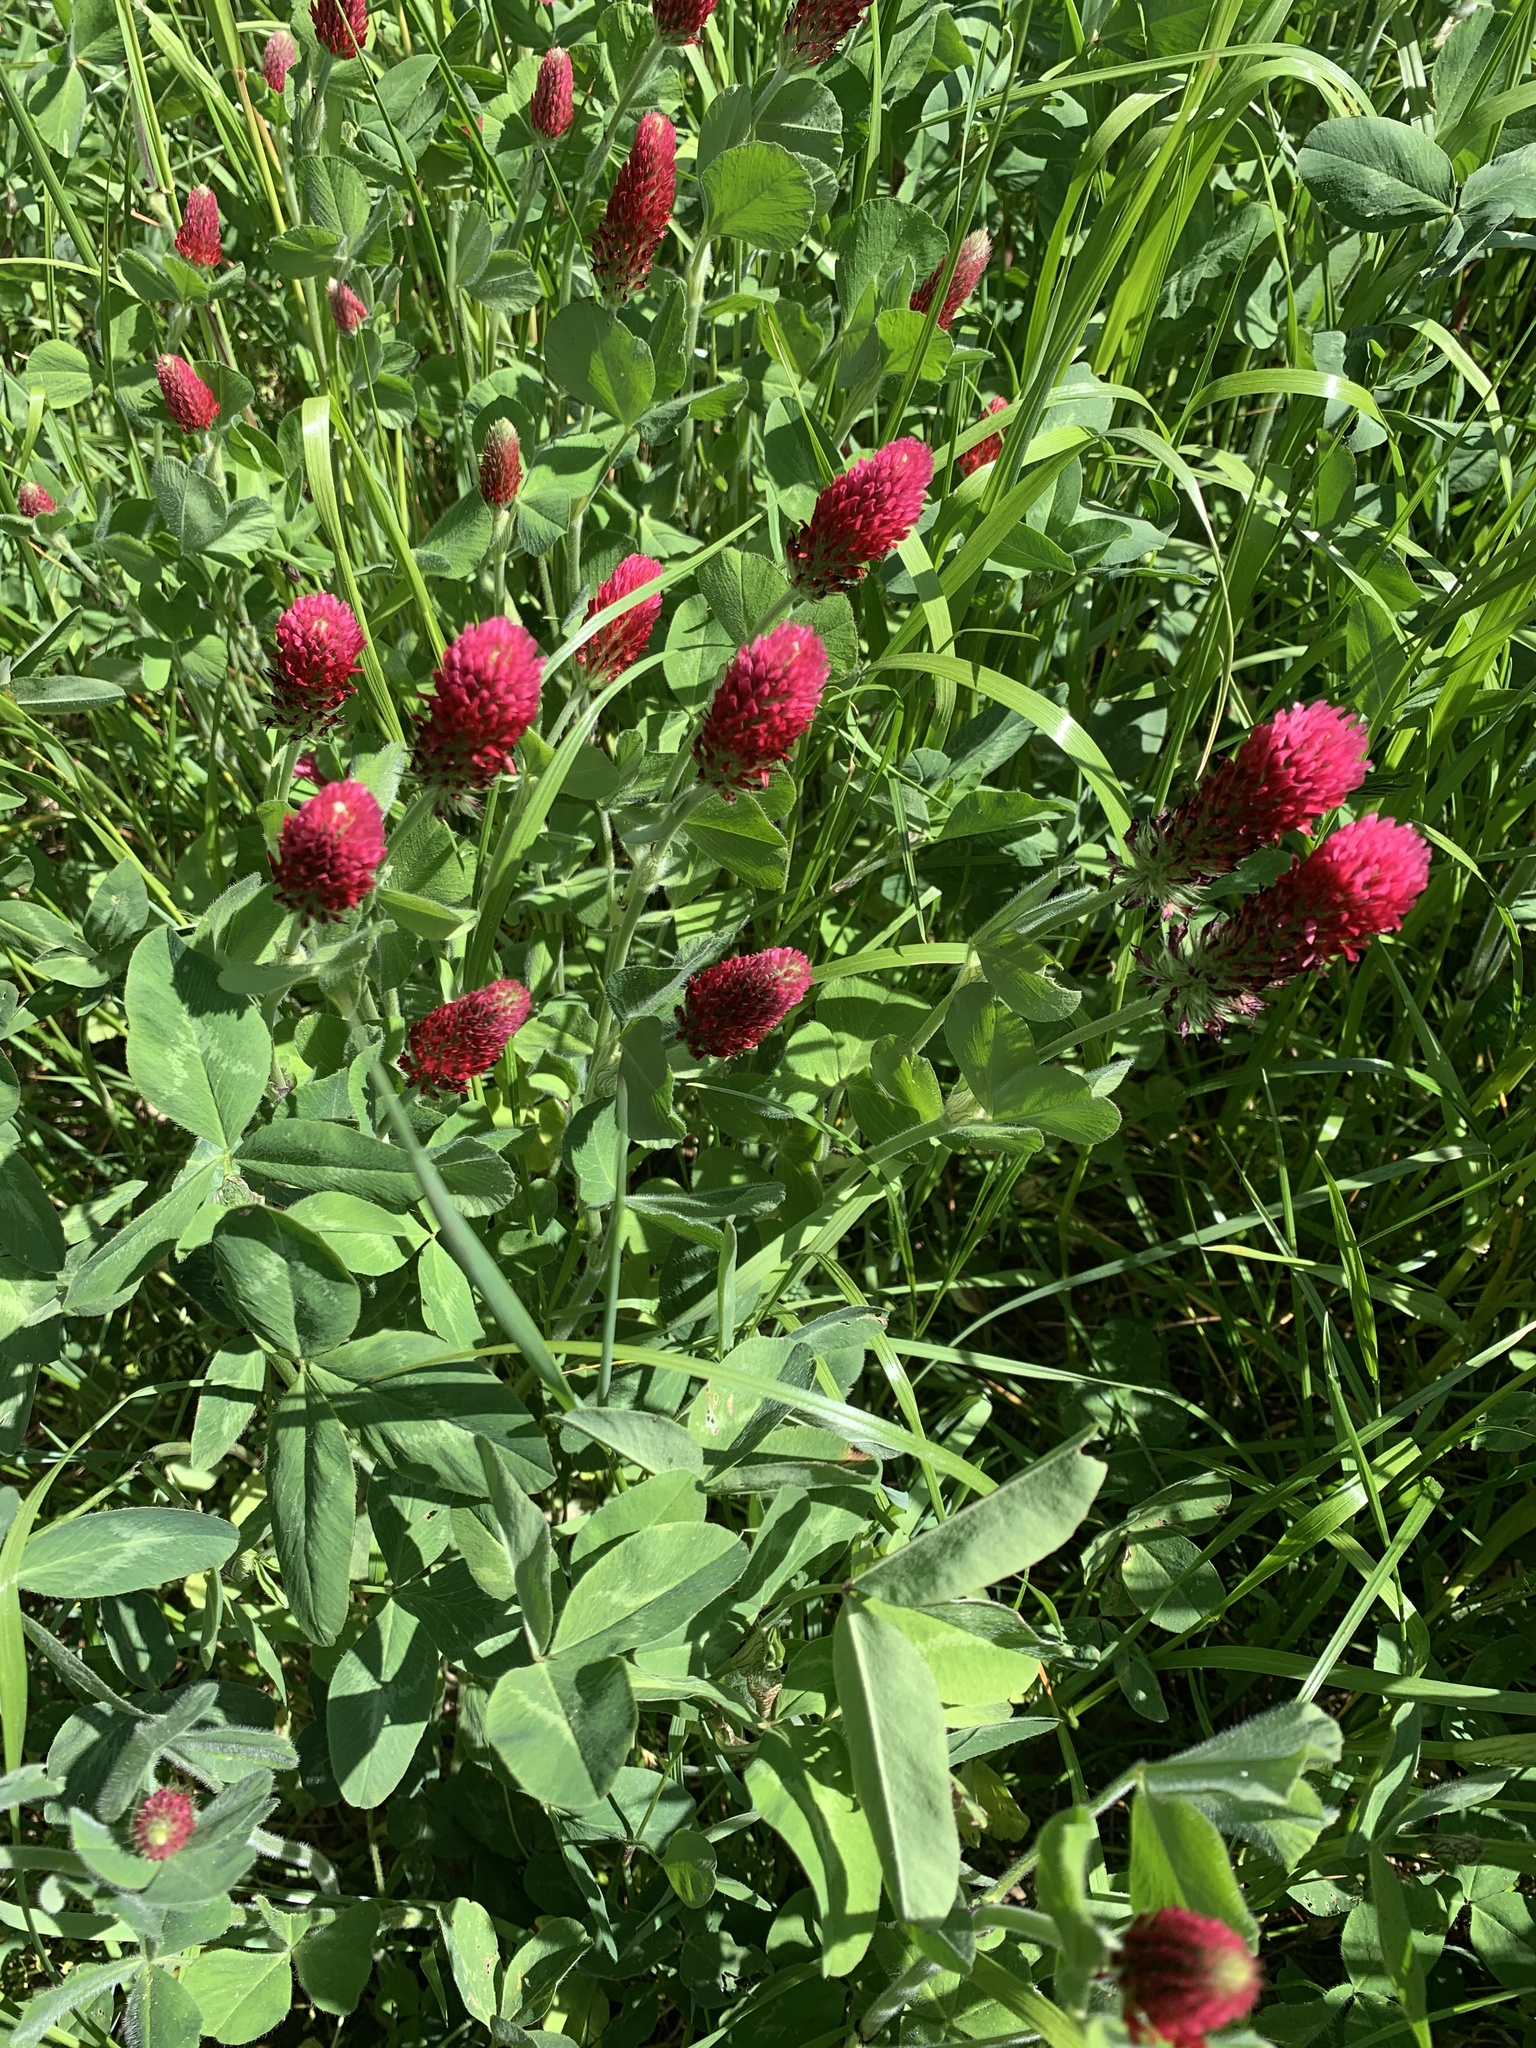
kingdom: Plantae
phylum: Tracheophyta
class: Magnoliopsida
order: Fabales
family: Fabaceae
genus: Trifolium
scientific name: Trifolium incarnatum
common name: Crimson clover
